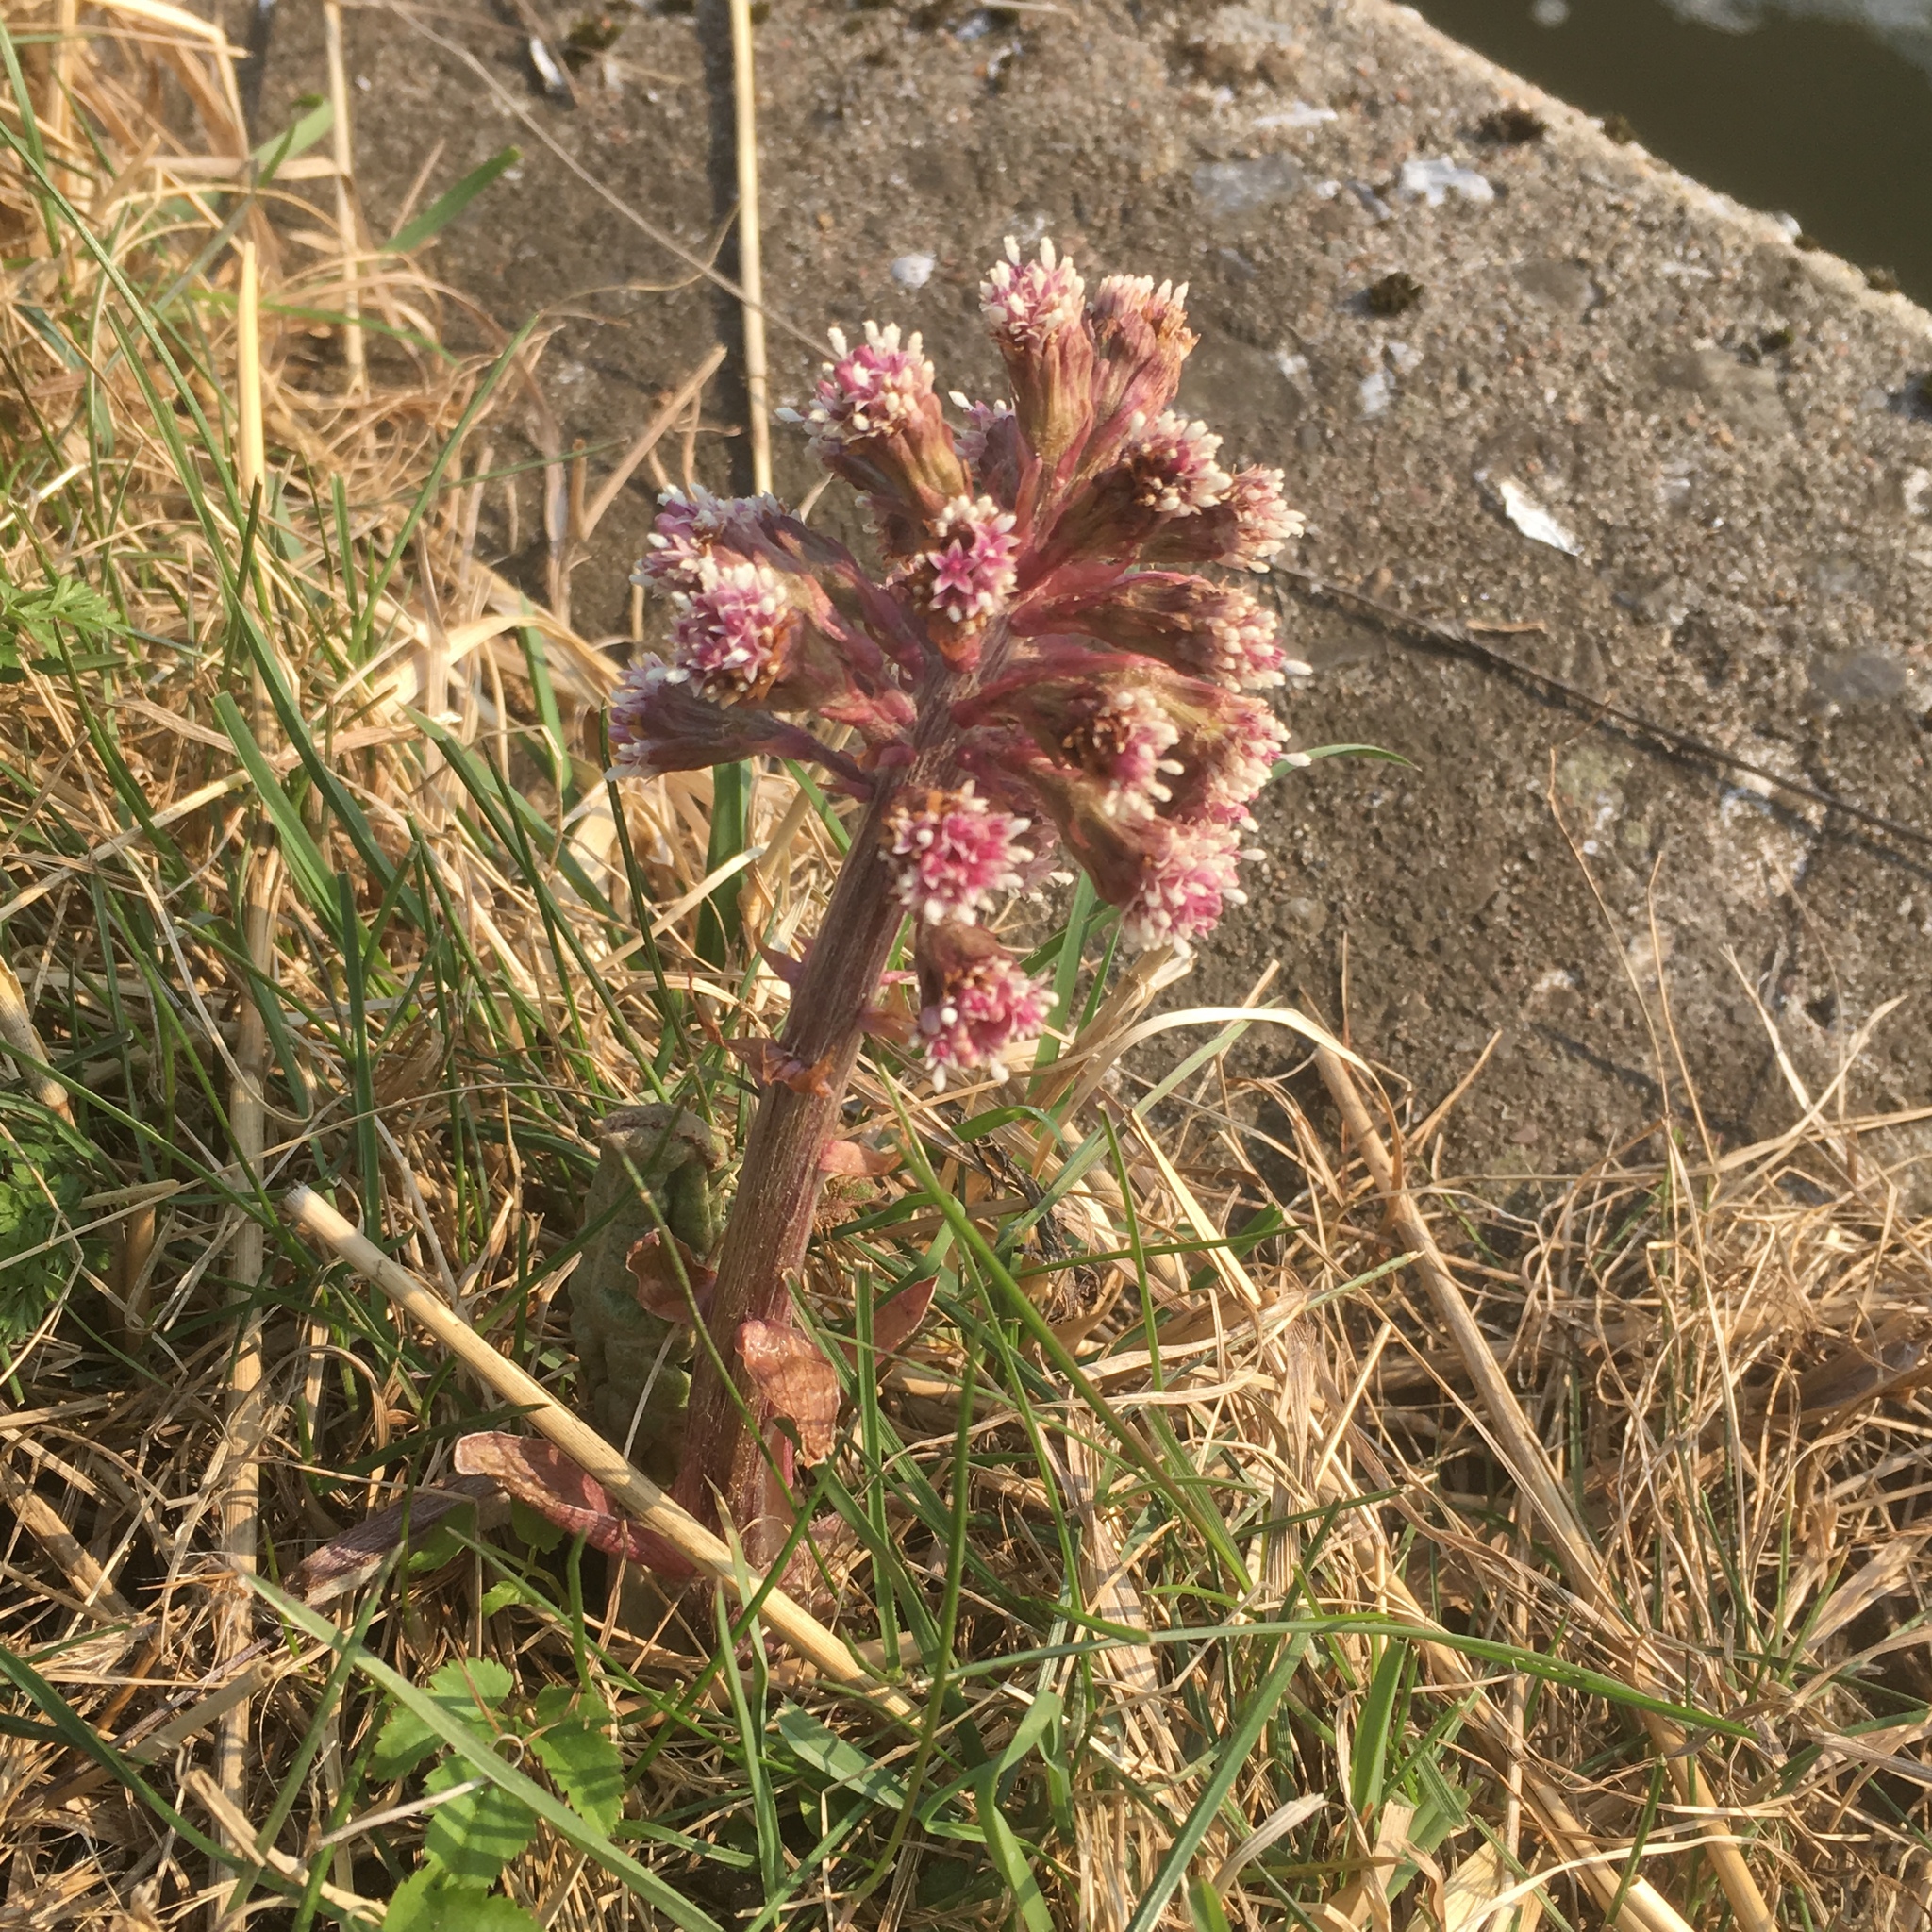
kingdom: Plantae
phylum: Tracheophyta
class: Magnoliopsida
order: Asterales
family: Asteraceae
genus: Petasites
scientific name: Petasites hybridus
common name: Butterbur
